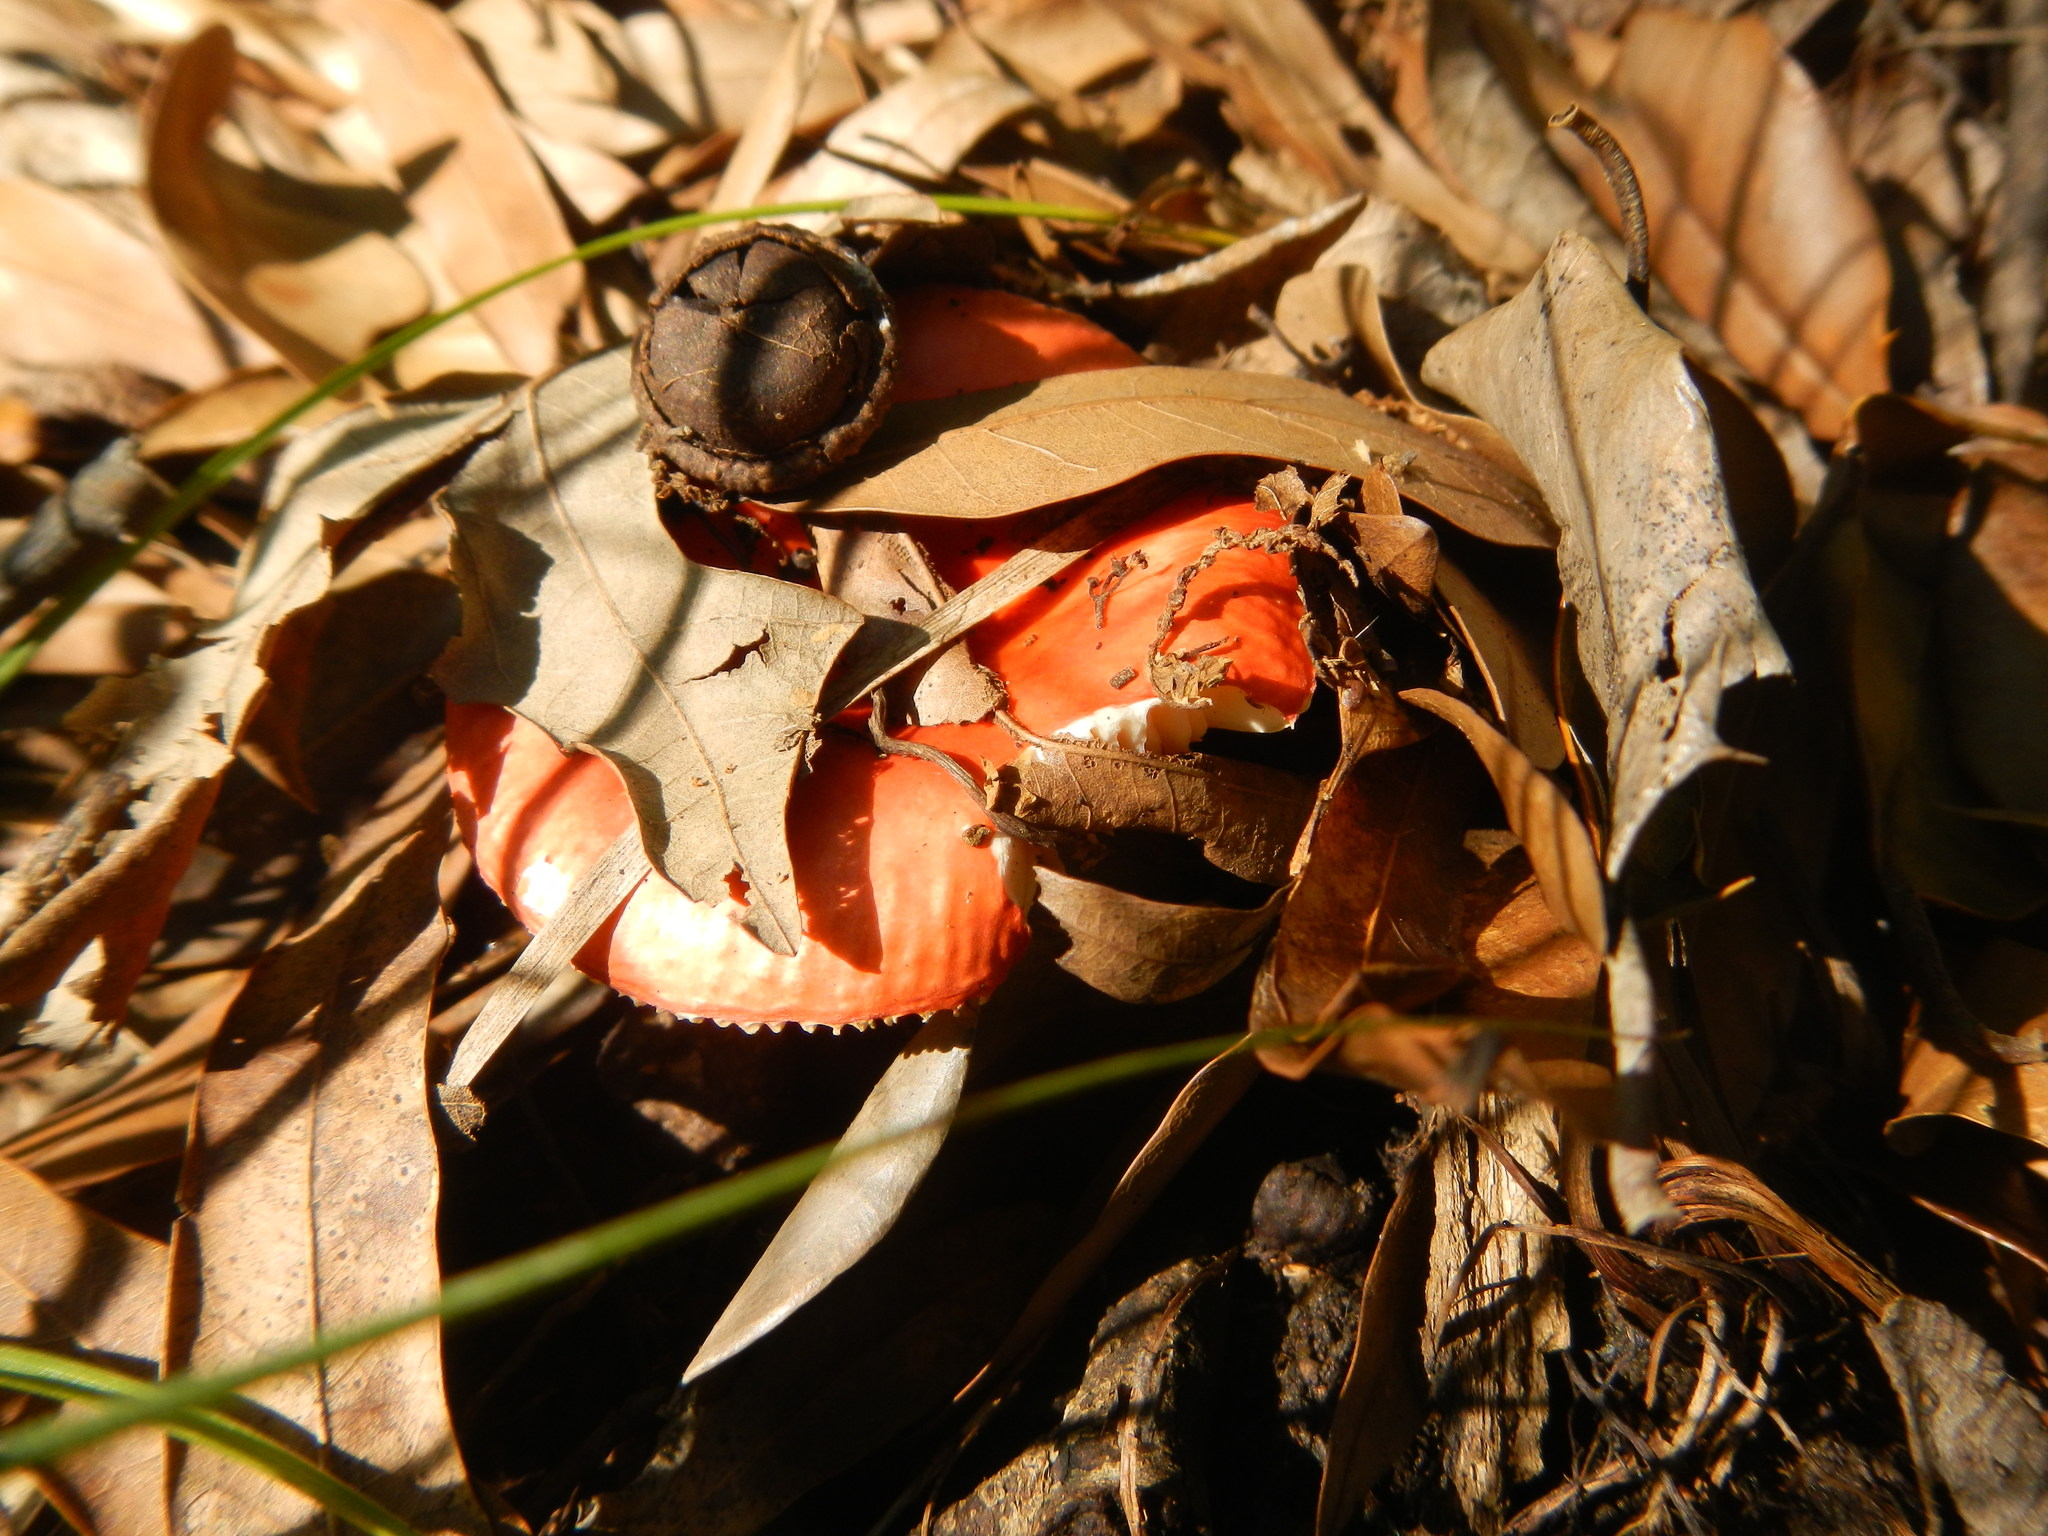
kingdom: Fungi
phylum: Basidiomycota
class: Agaricomycetes
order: Russulales
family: Russulaceae
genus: Russula
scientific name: Russula
